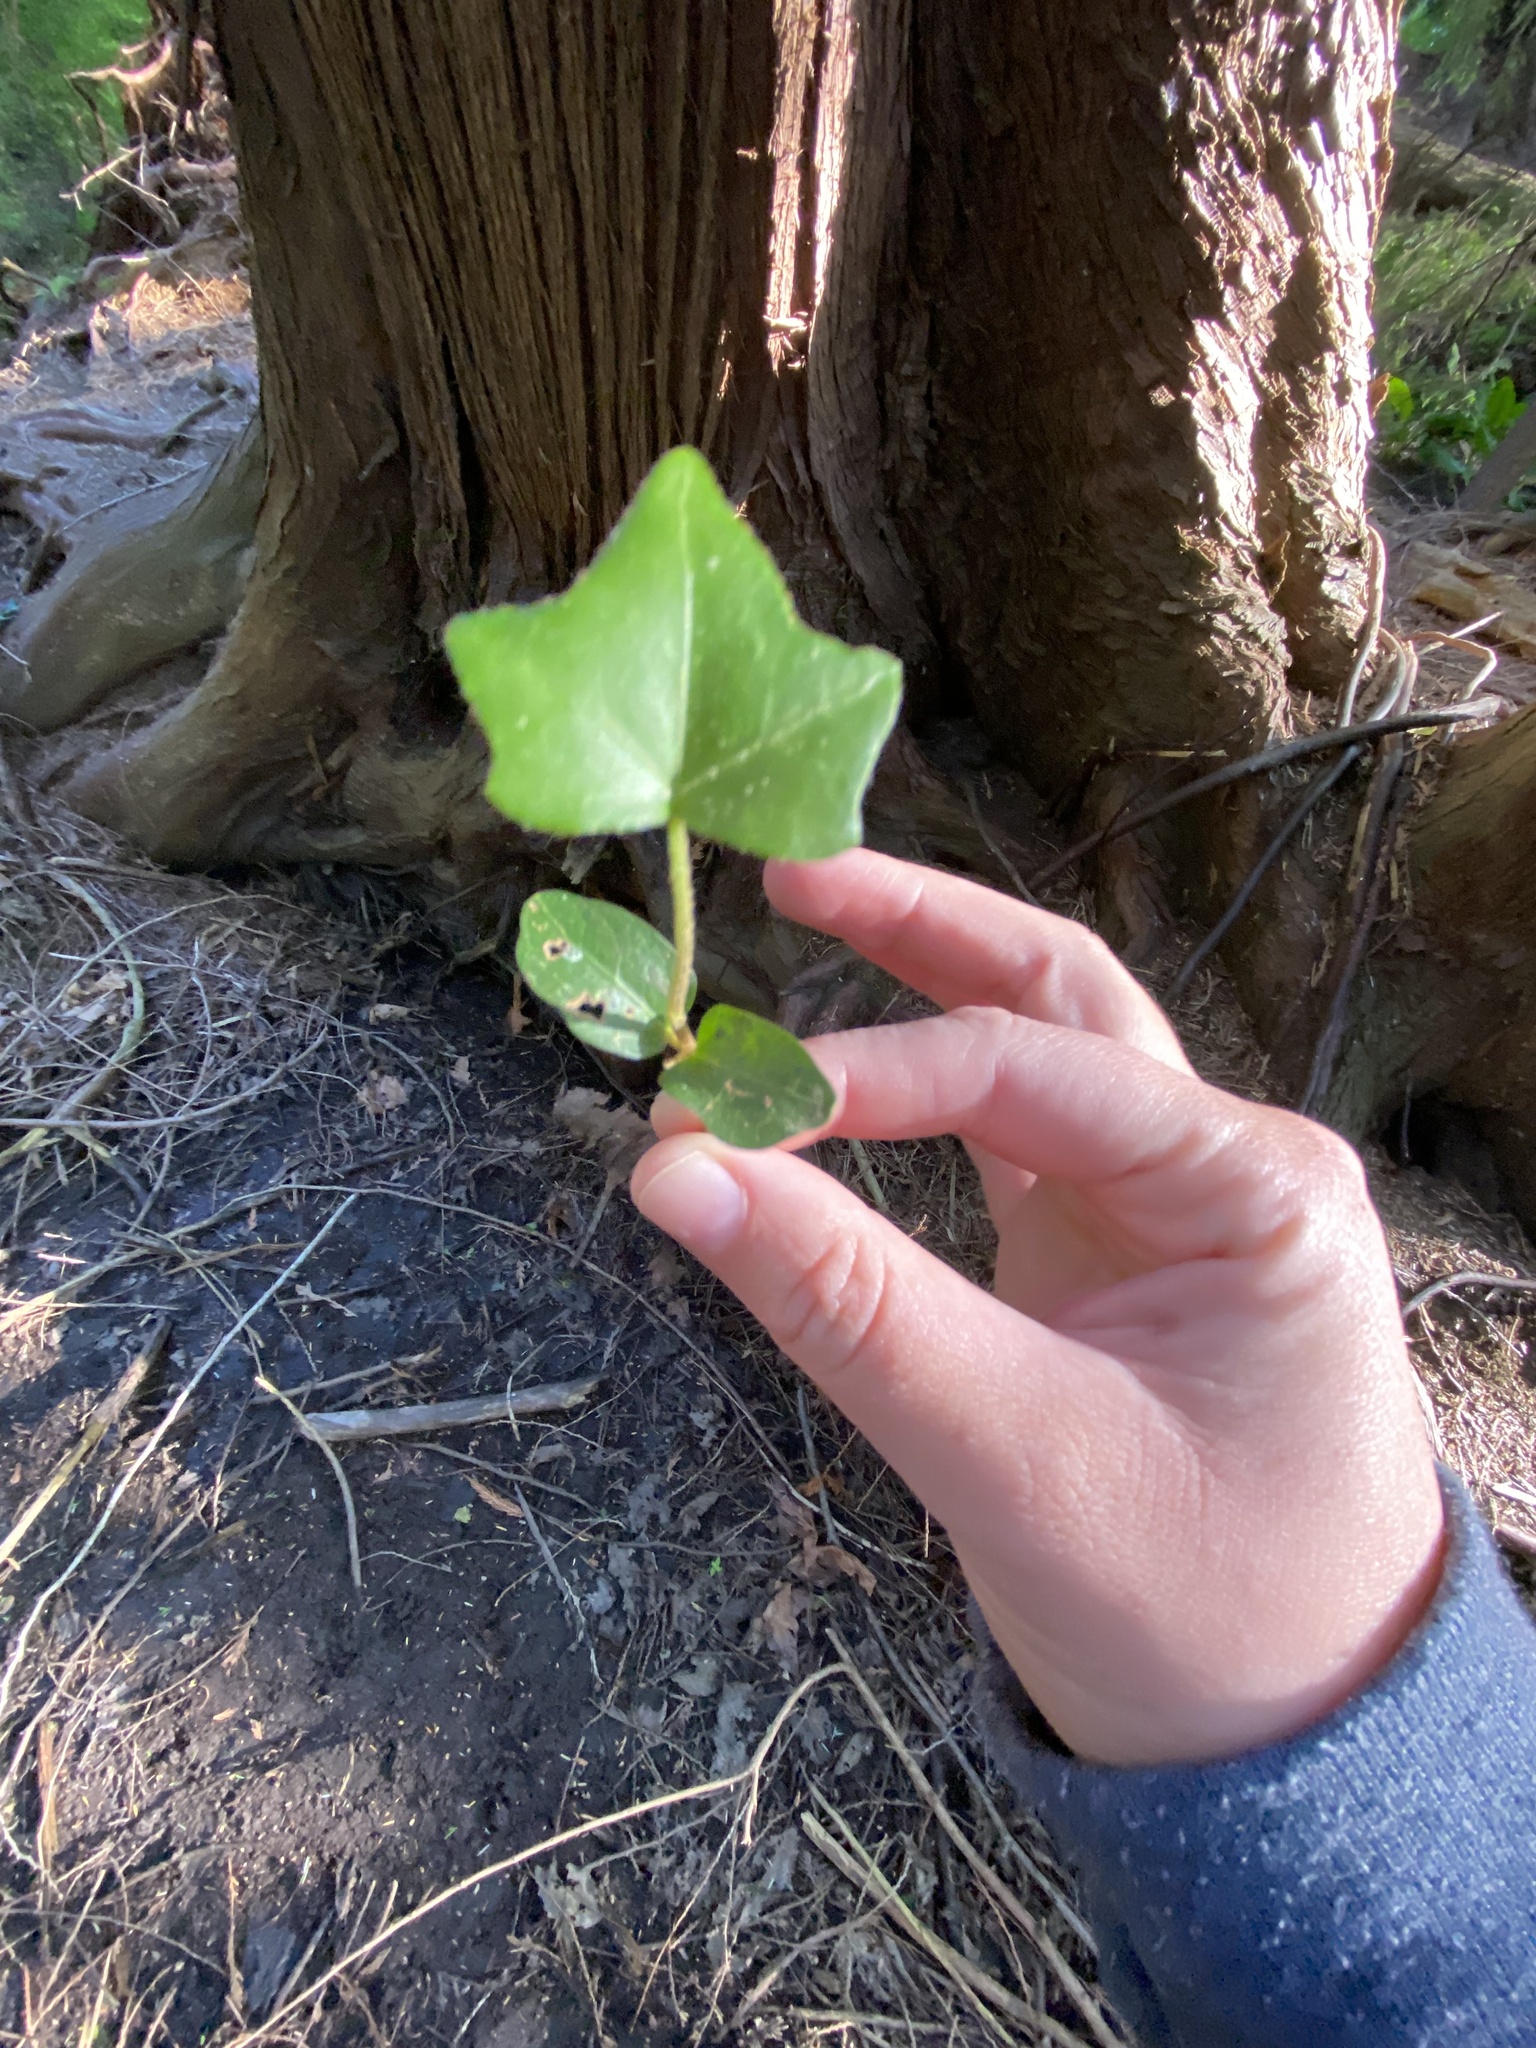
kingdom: Plantae
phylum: Tracheophyta
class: Magnoliopsida
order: Apiales
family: Araliaceae
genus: Hedera
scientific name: Hedera helix
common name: Ivy
